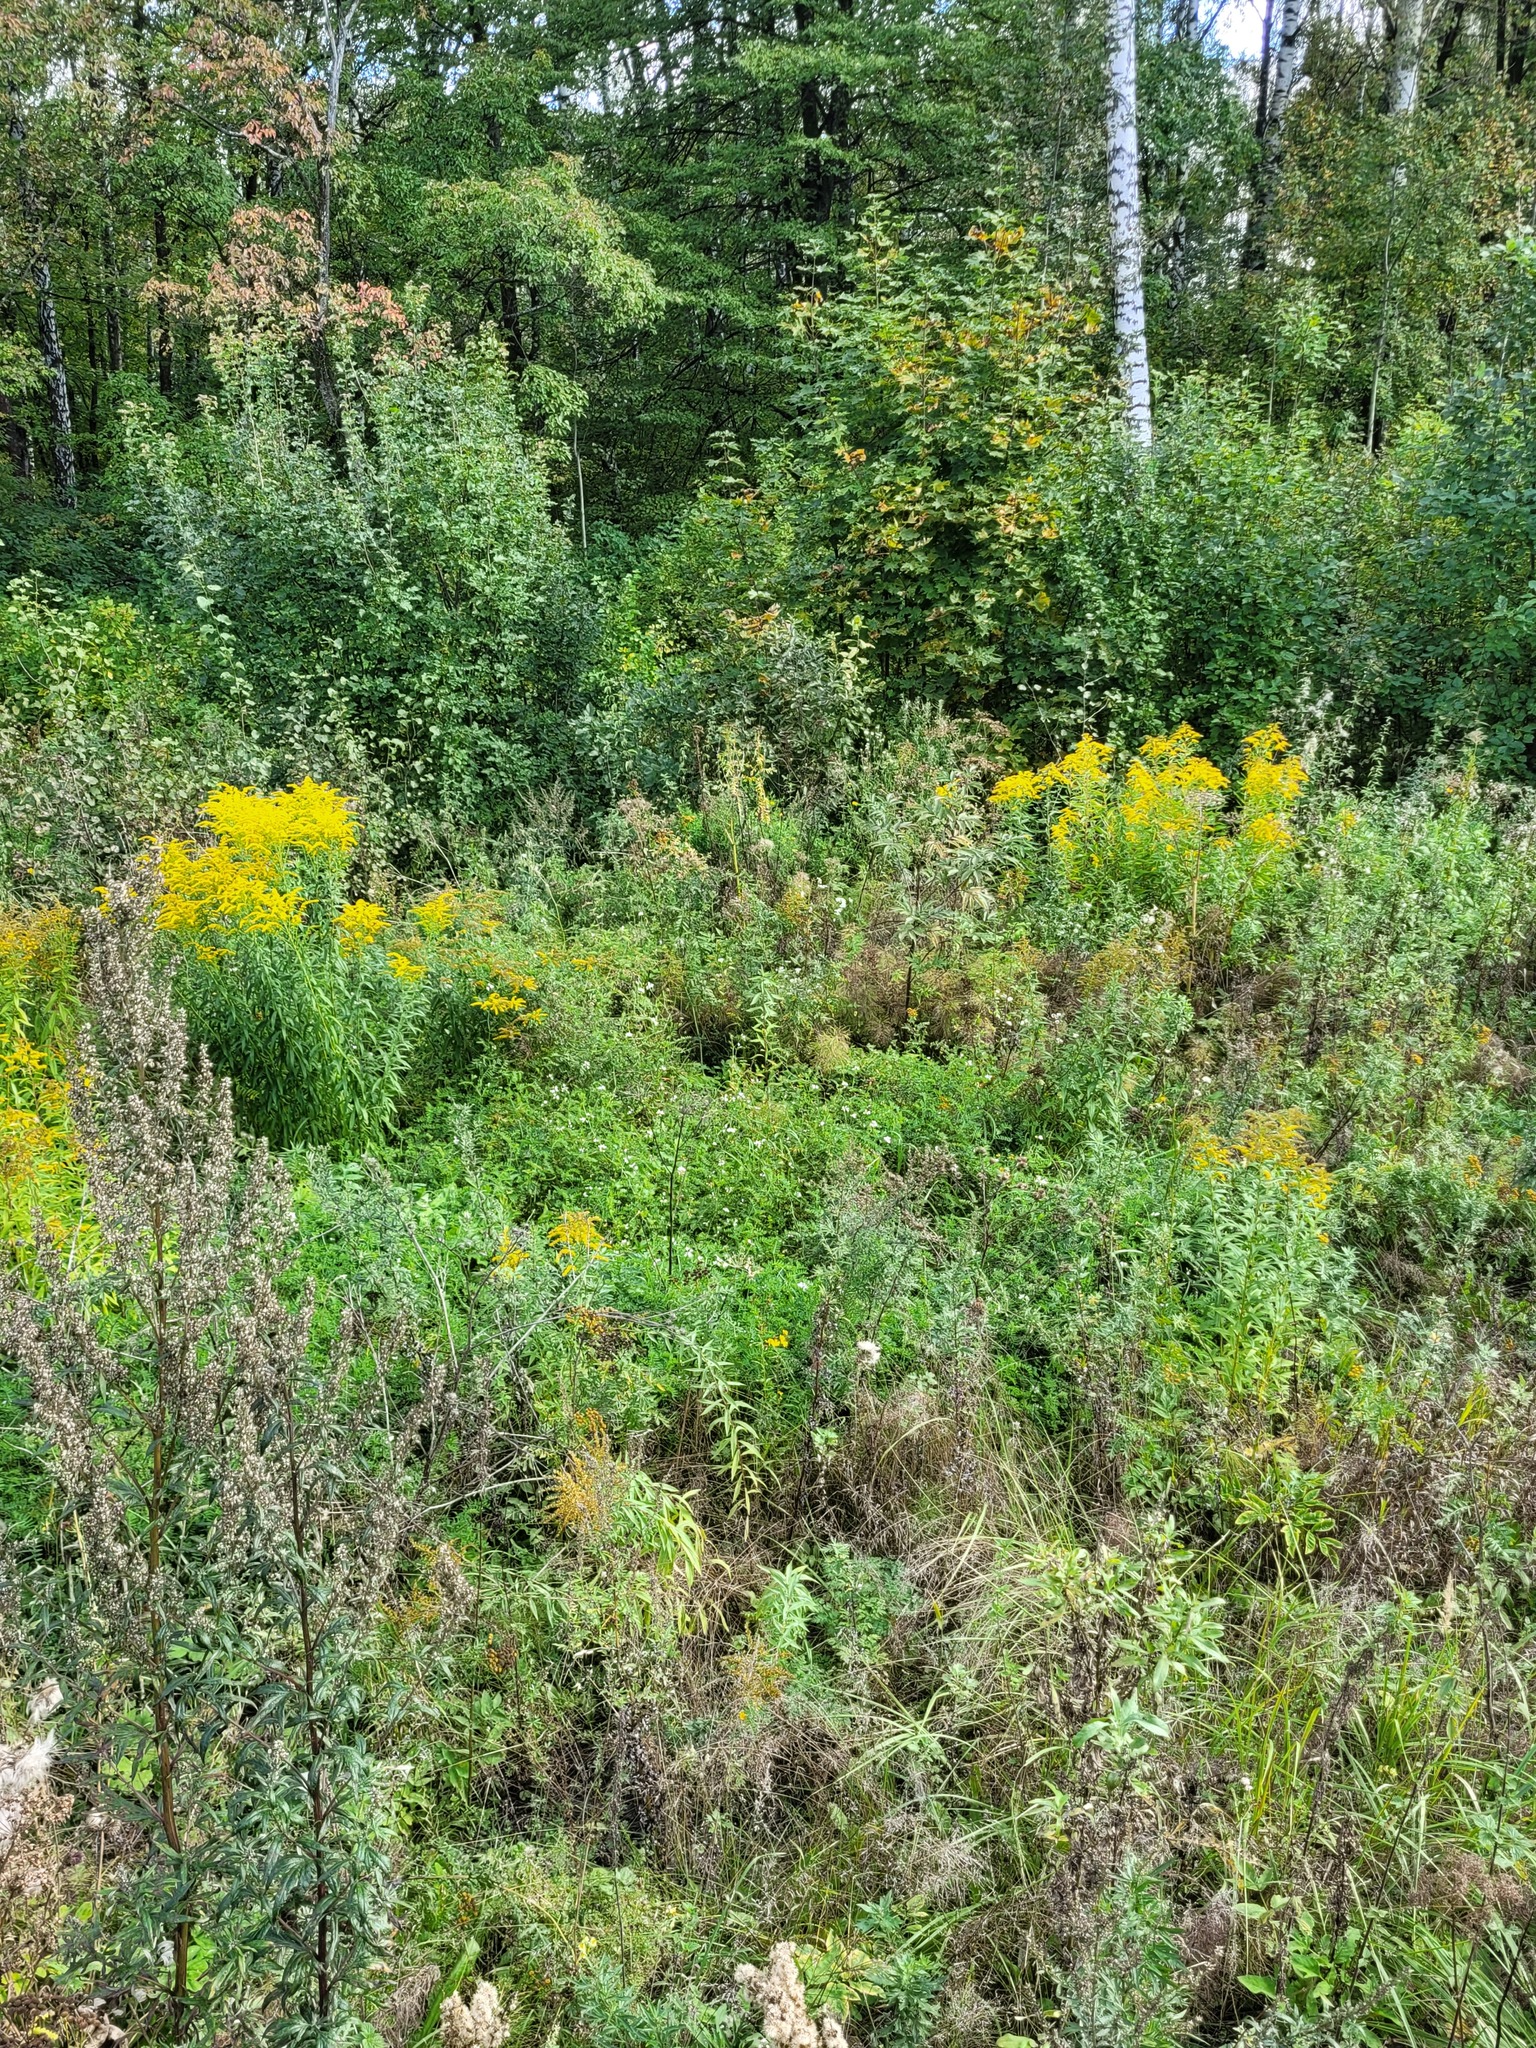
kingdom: Plantae
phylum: Tracheophyta
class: Magnoliopsida
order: Fabales
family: Fabaceae
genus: Coronilla
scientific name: Coronilla varia
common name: Crownvetch
